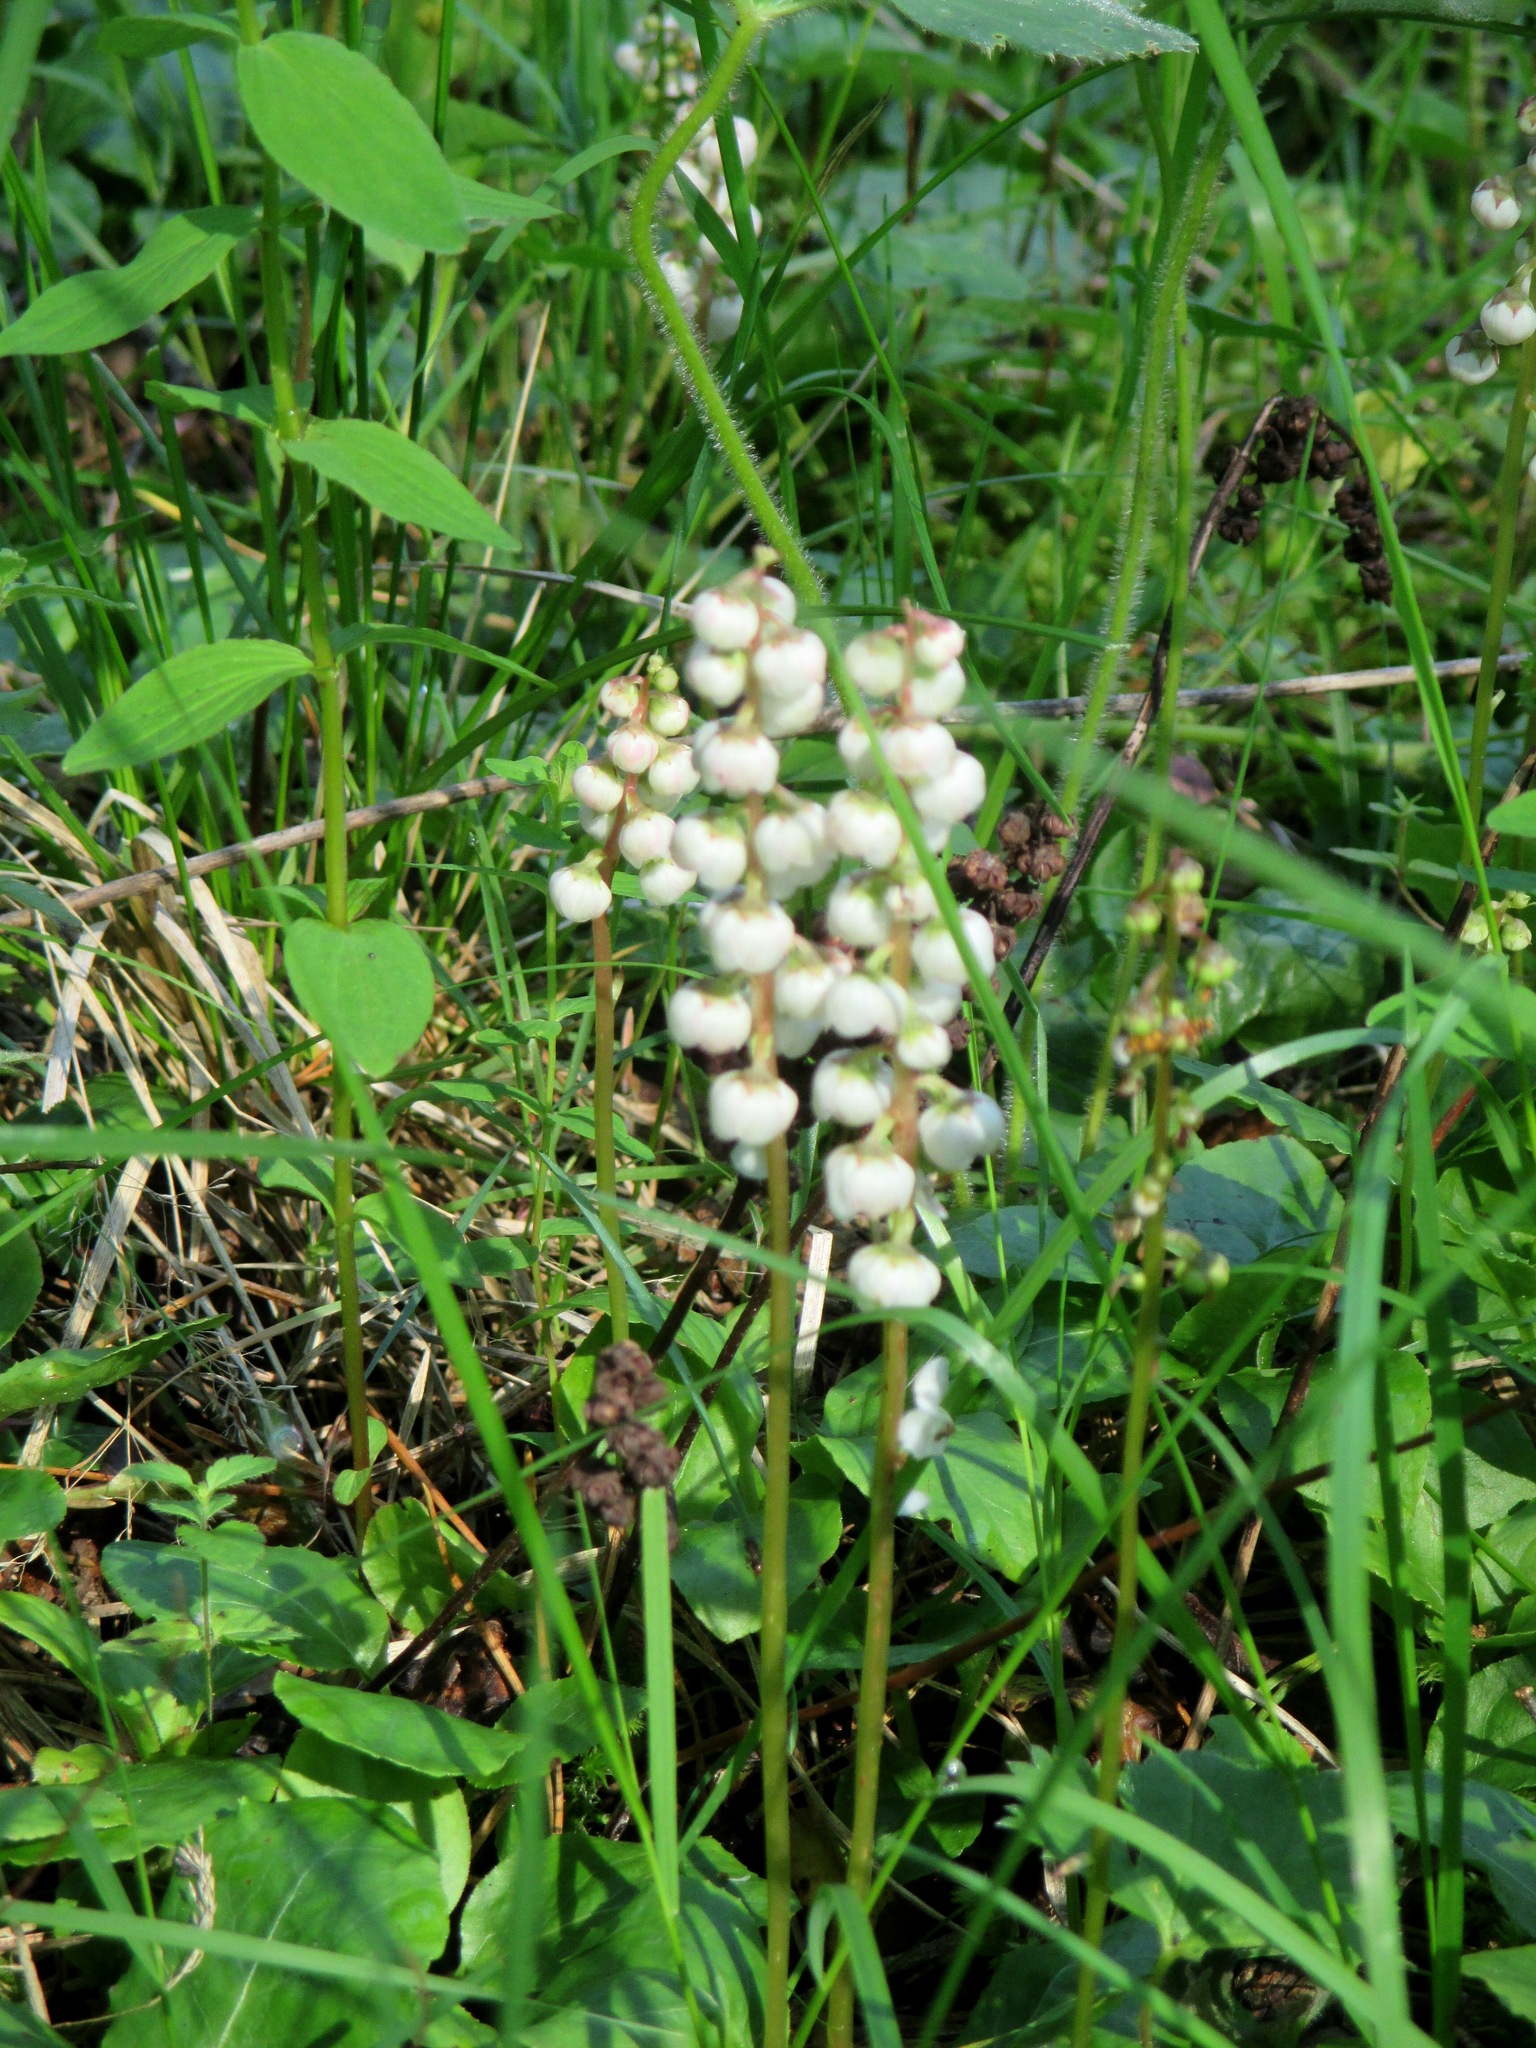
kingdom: Plantae
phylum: Tracheophyta
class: Magnoliopsida
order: Ericales
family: Ericaceae
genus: Pyrola
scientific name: Pyrola minor
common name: Common wintergreen
